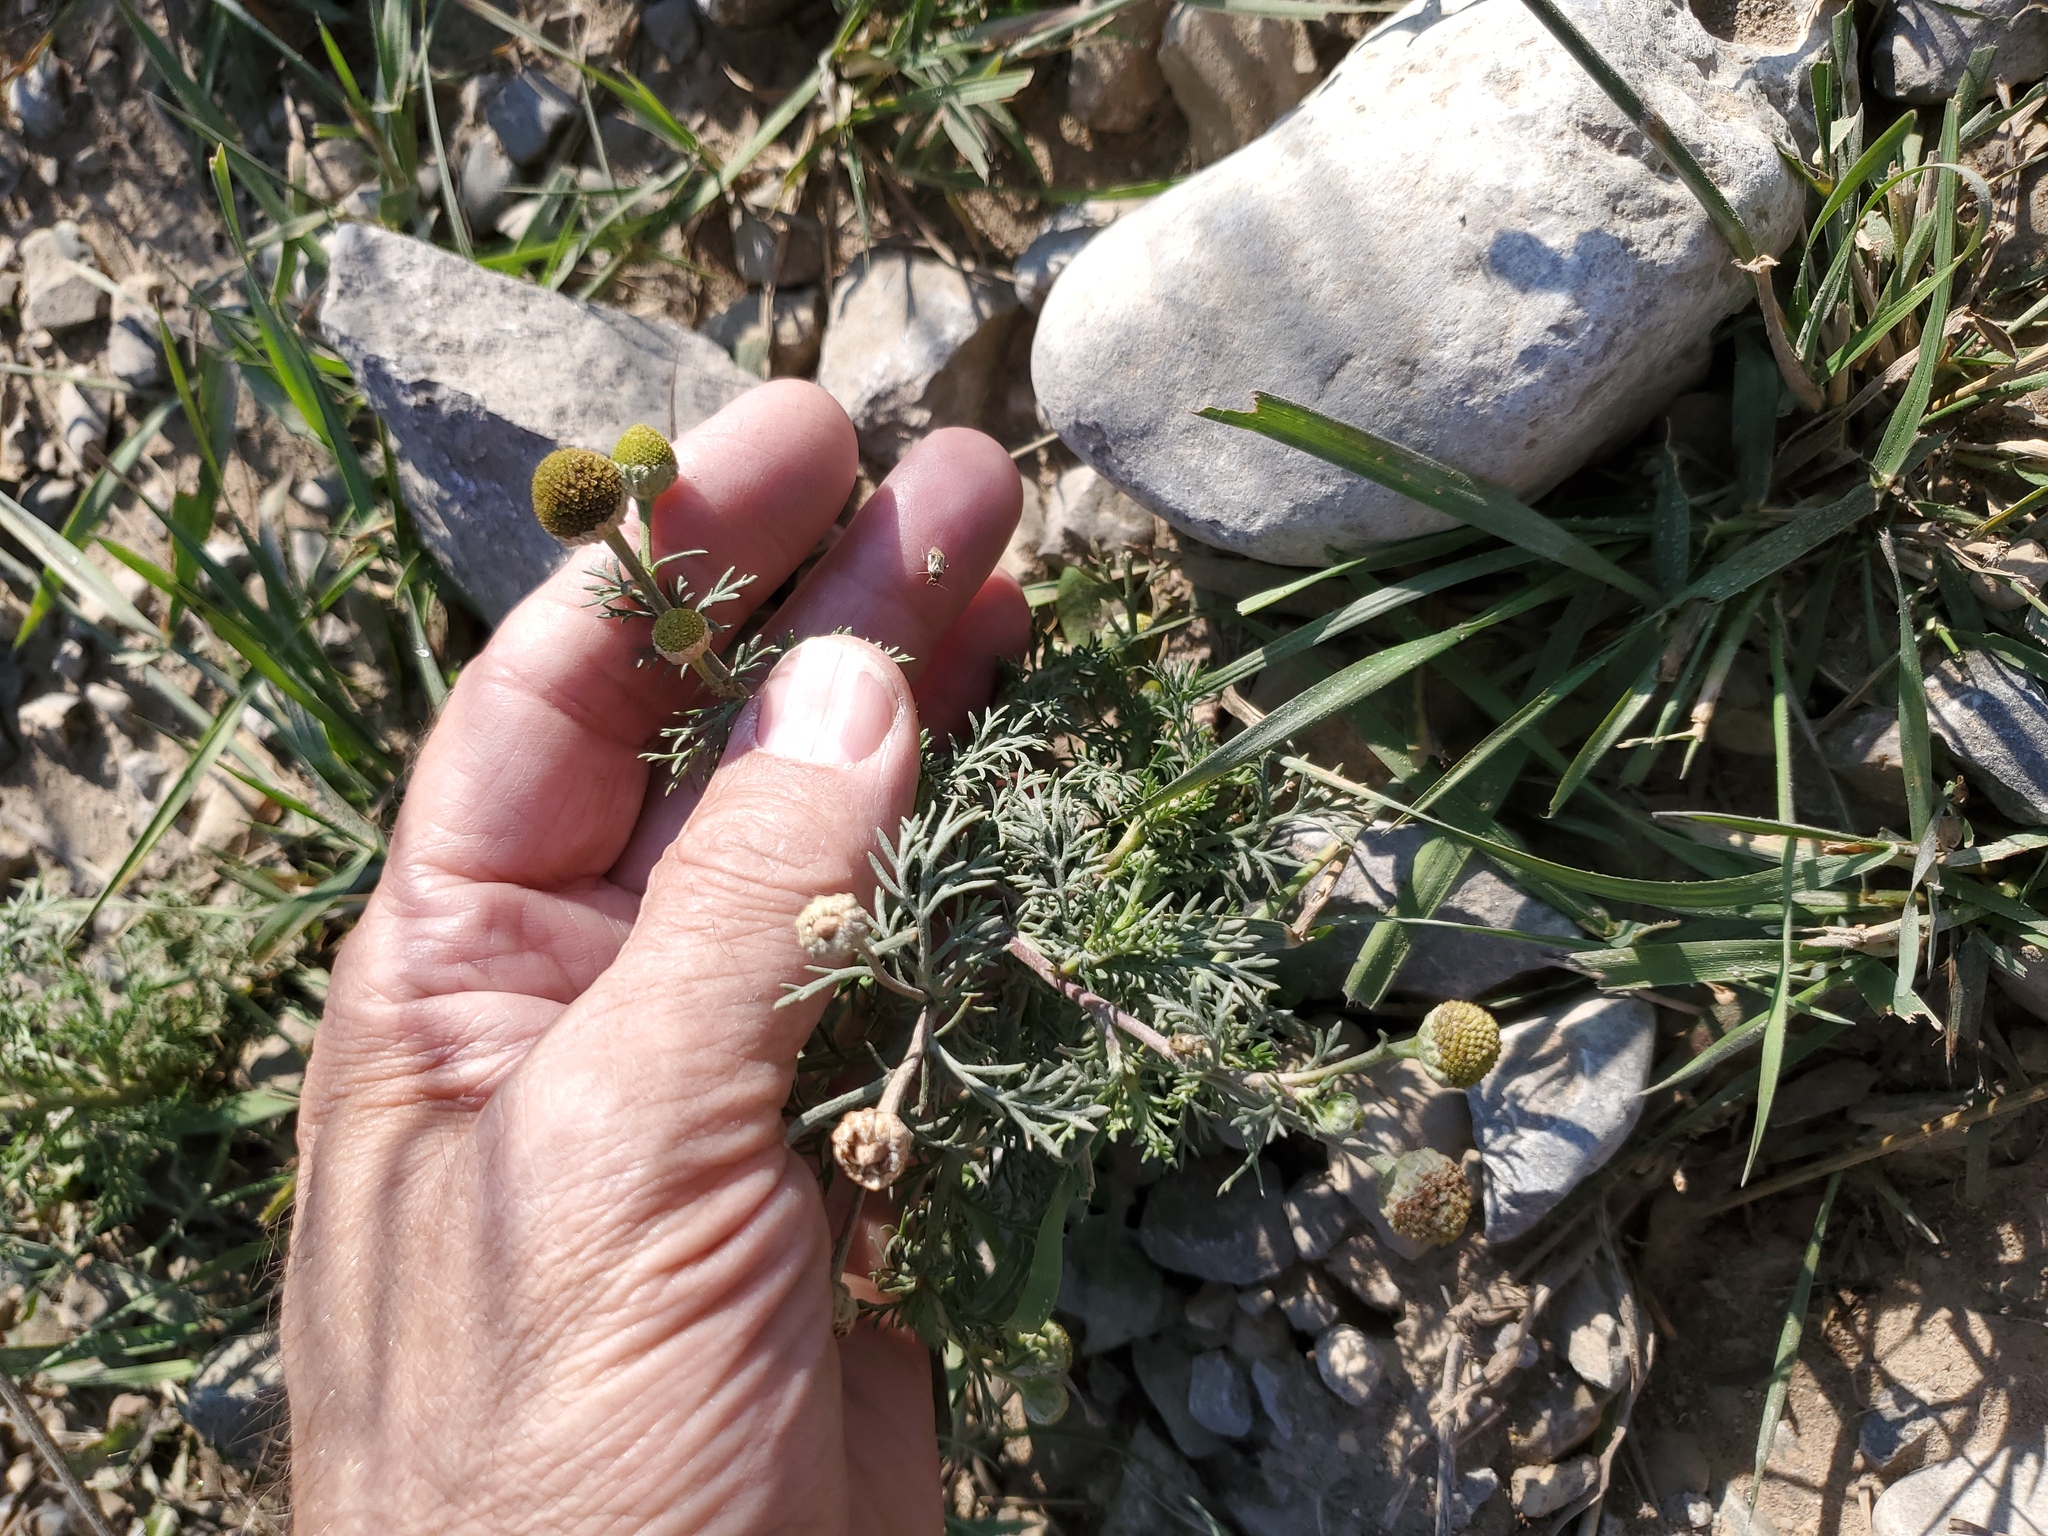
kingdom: Plantae
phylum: Tracheophyta
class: Magnoliopsida
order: Asterales
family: Asteraceae
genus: Matricaria
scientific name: Matricaria discoidea
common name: Disc mayweed
